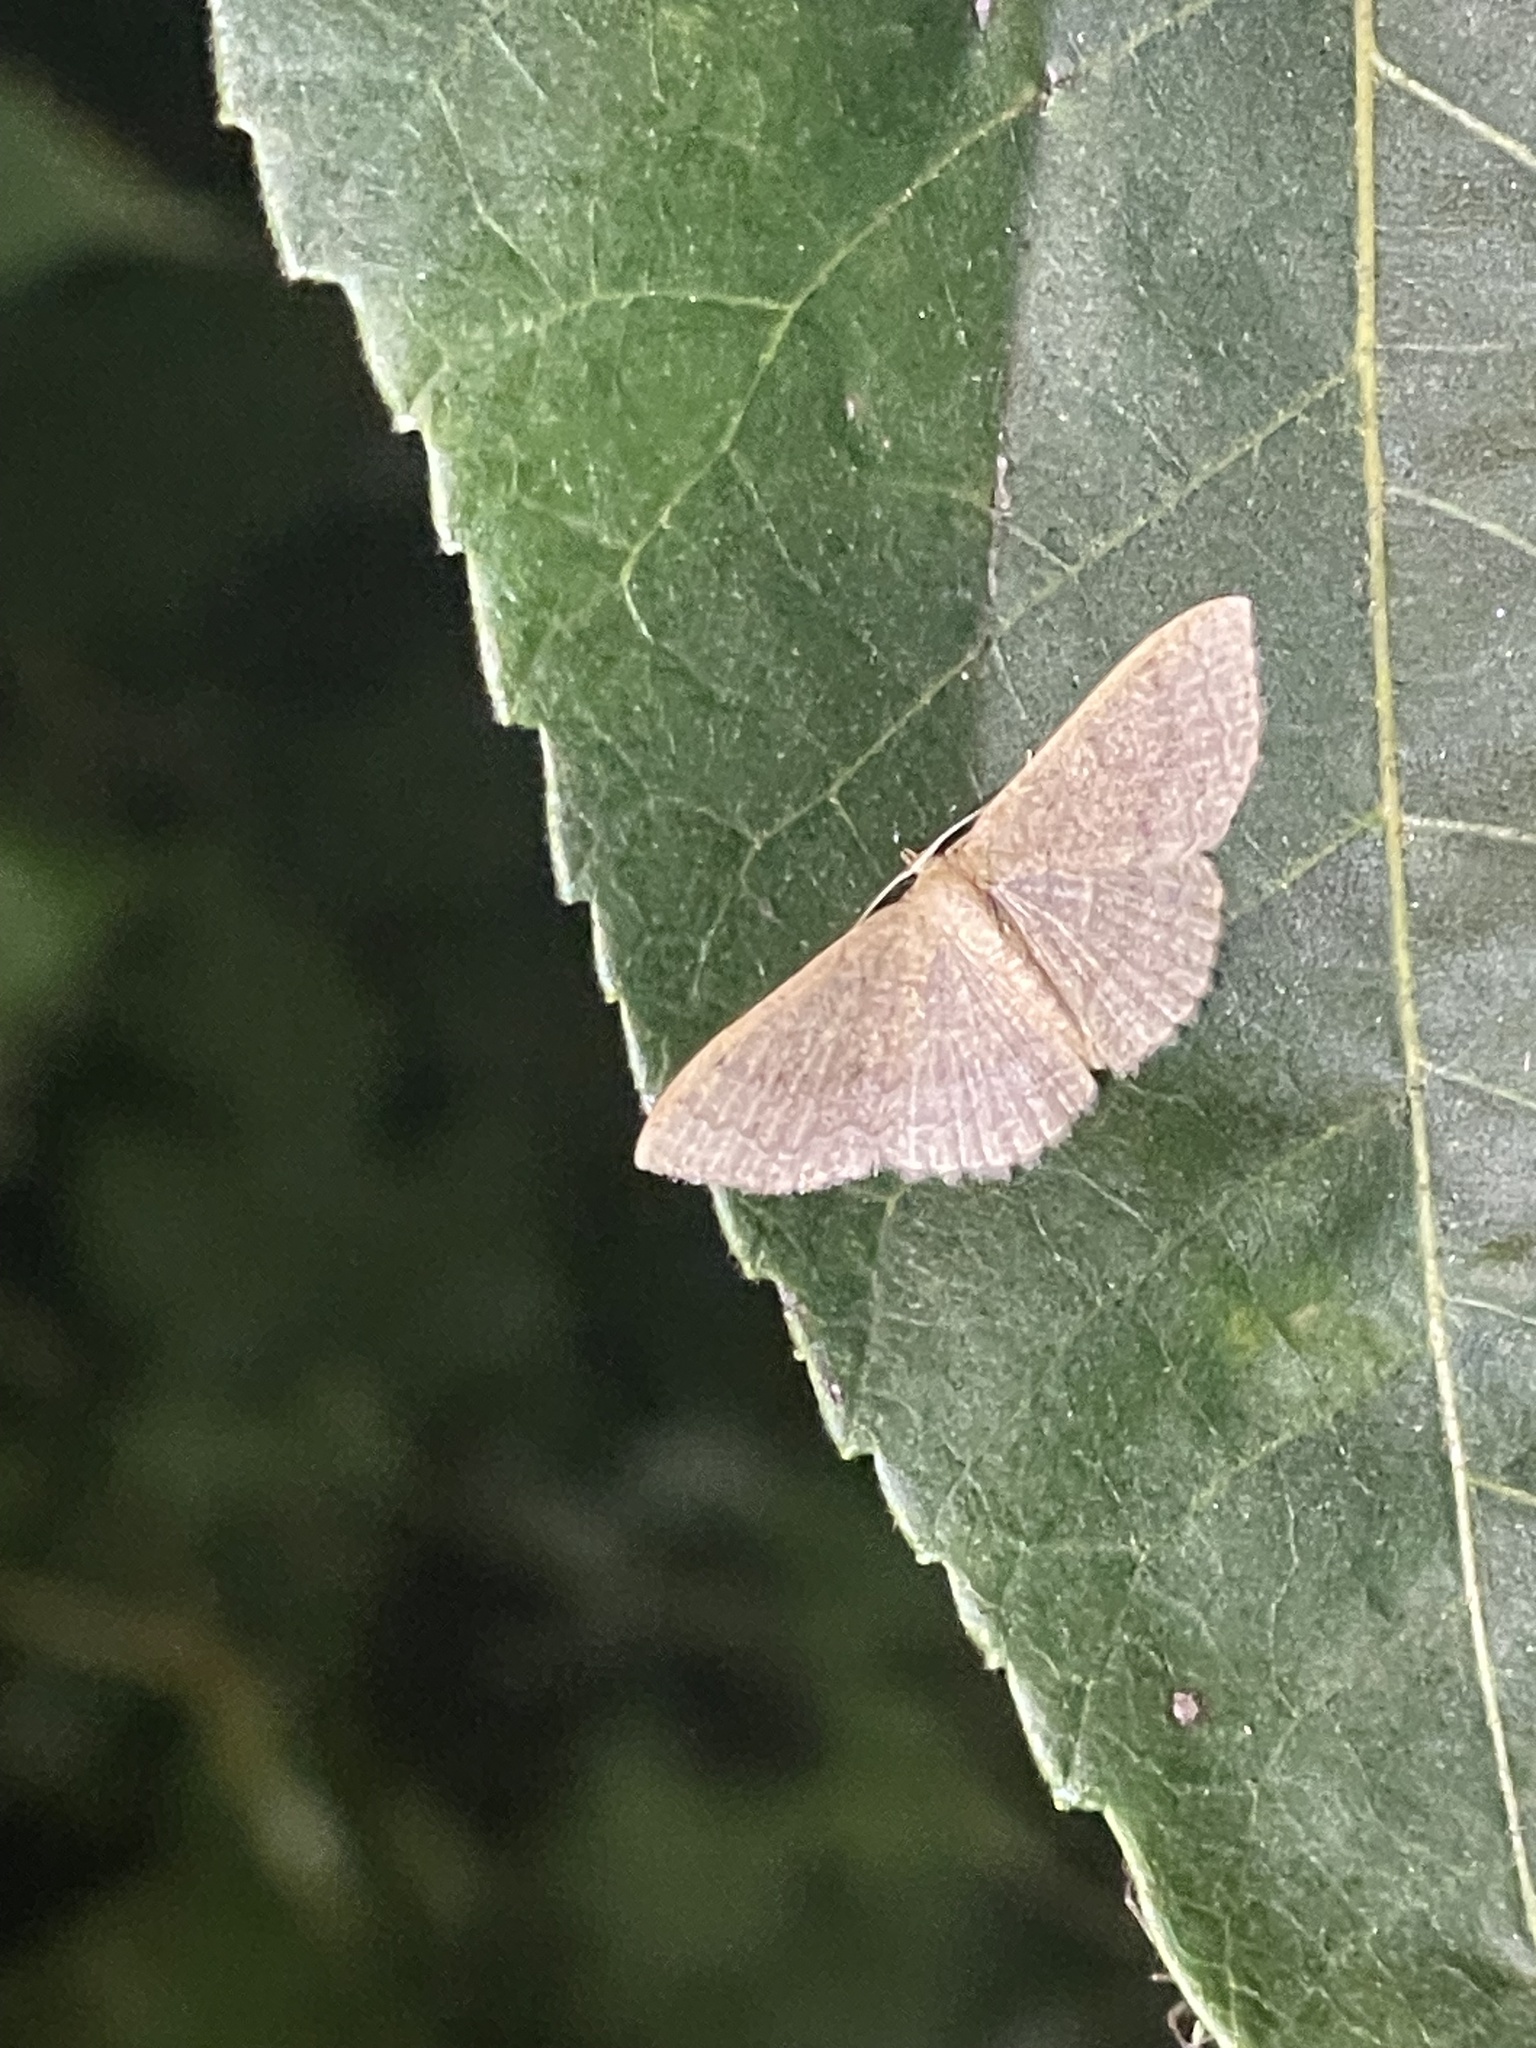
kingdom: Animalia
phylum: Arthropoda
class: Insecta
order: Lepidoptera
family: Geometridae
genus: Pleuroprucha
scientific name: Pleuroprucha insulsaria
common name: Common tan wave
